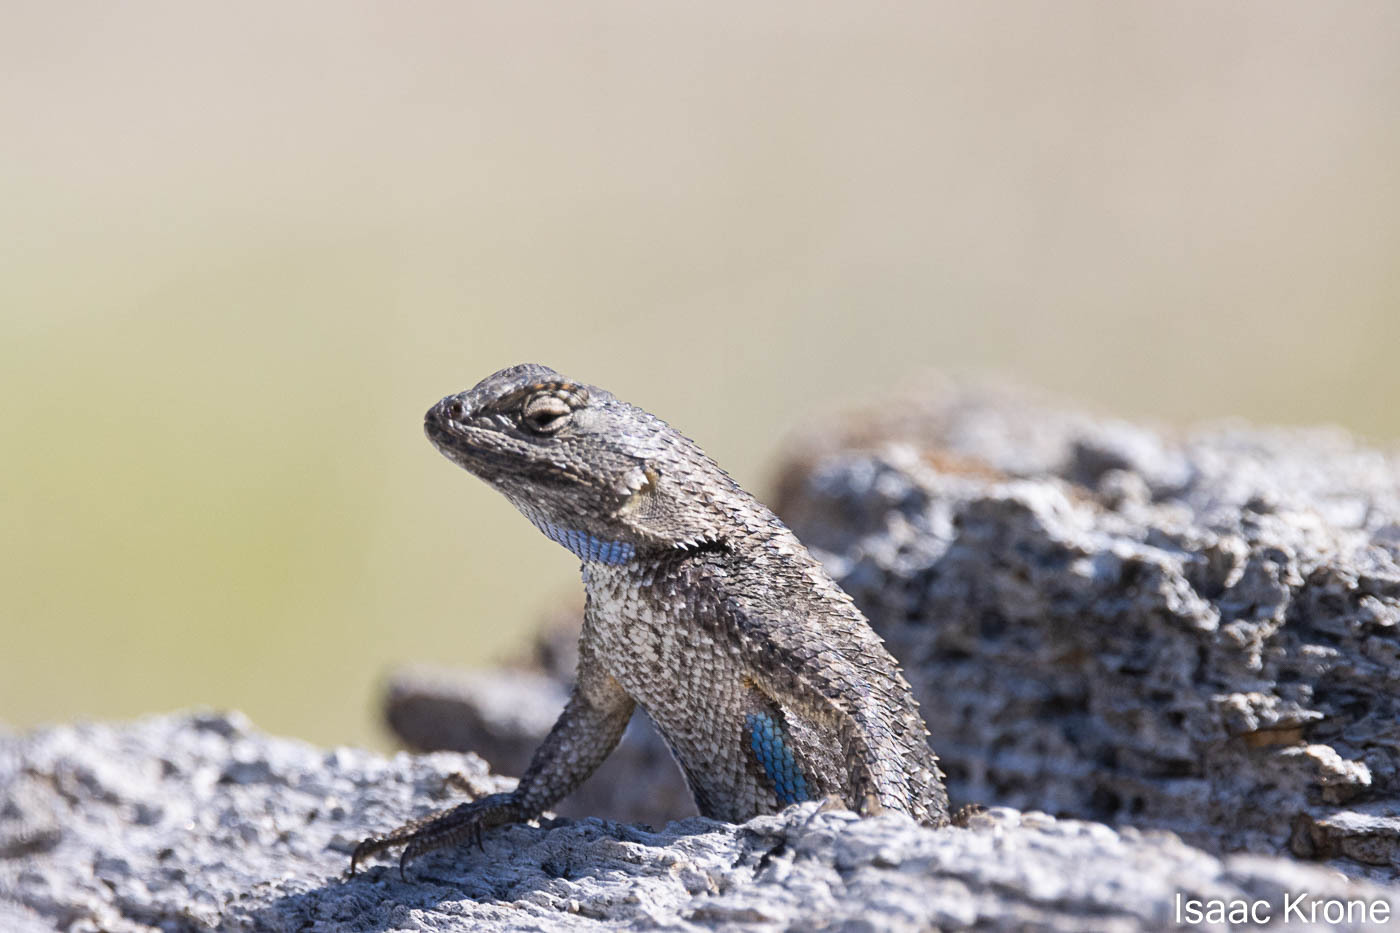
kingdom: Animalia
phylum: Chordata
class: Squamata
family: Phrynosomatidae
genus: Sceloporus
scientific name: Sceloporus occidentalis
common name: Western fence lizard
